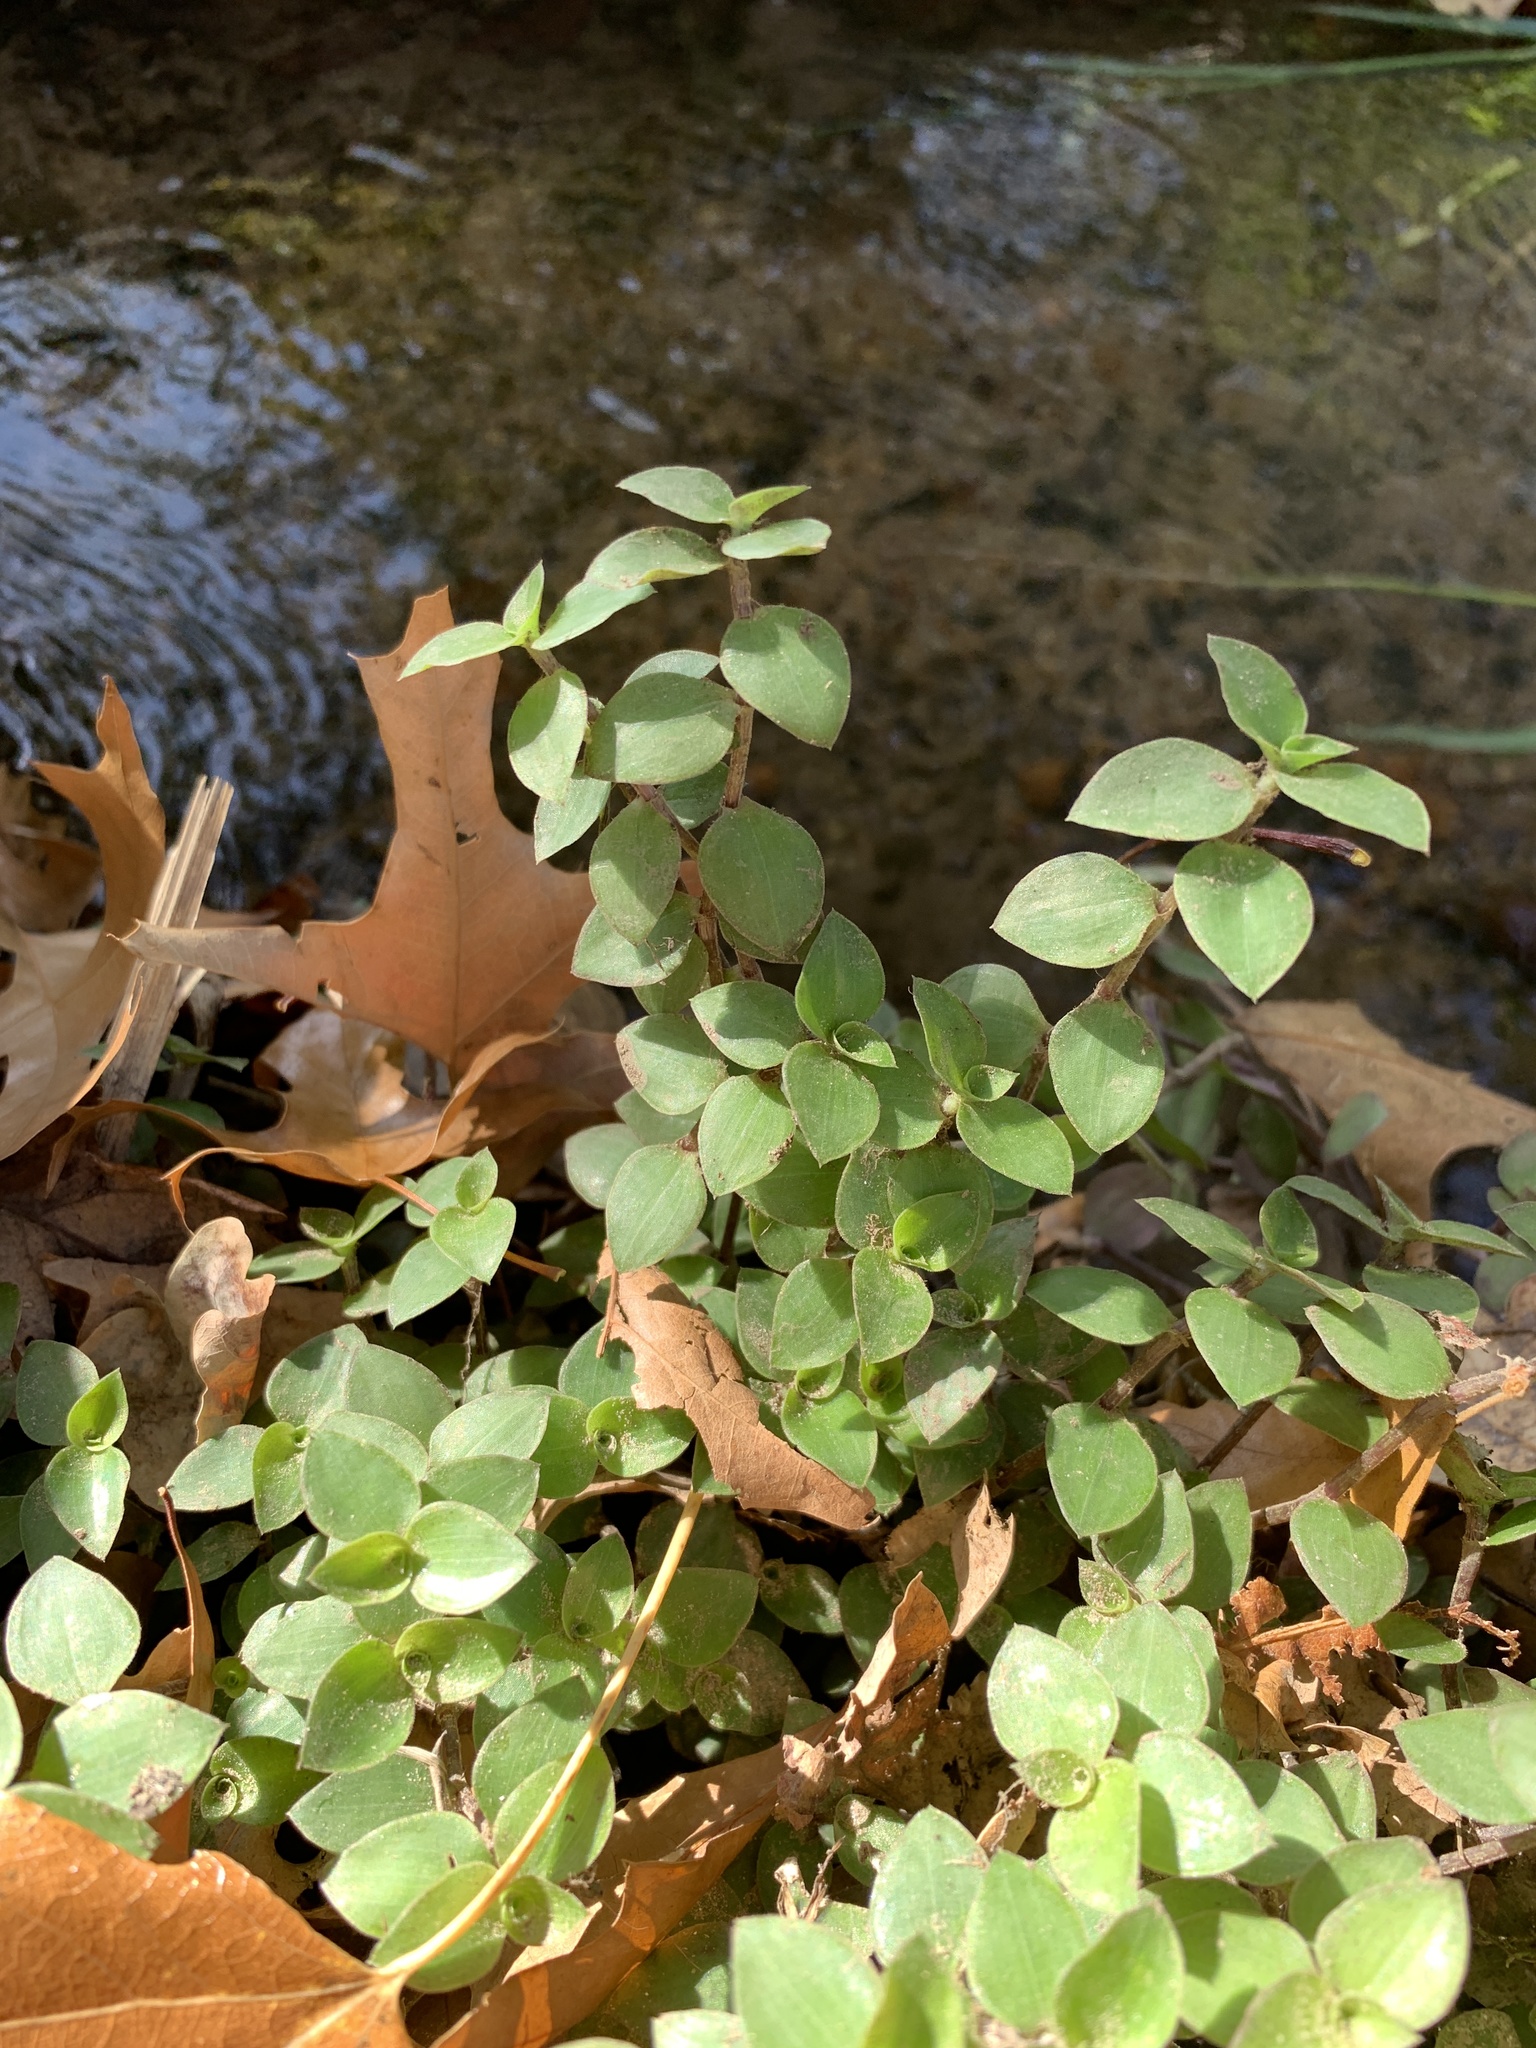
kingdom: Plantae
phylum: Tracheophyta
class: Liliopsida
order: Commelinales
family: Commelinaceae
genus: Callisia
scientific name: Callisia repens
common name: Creeping inchplant
